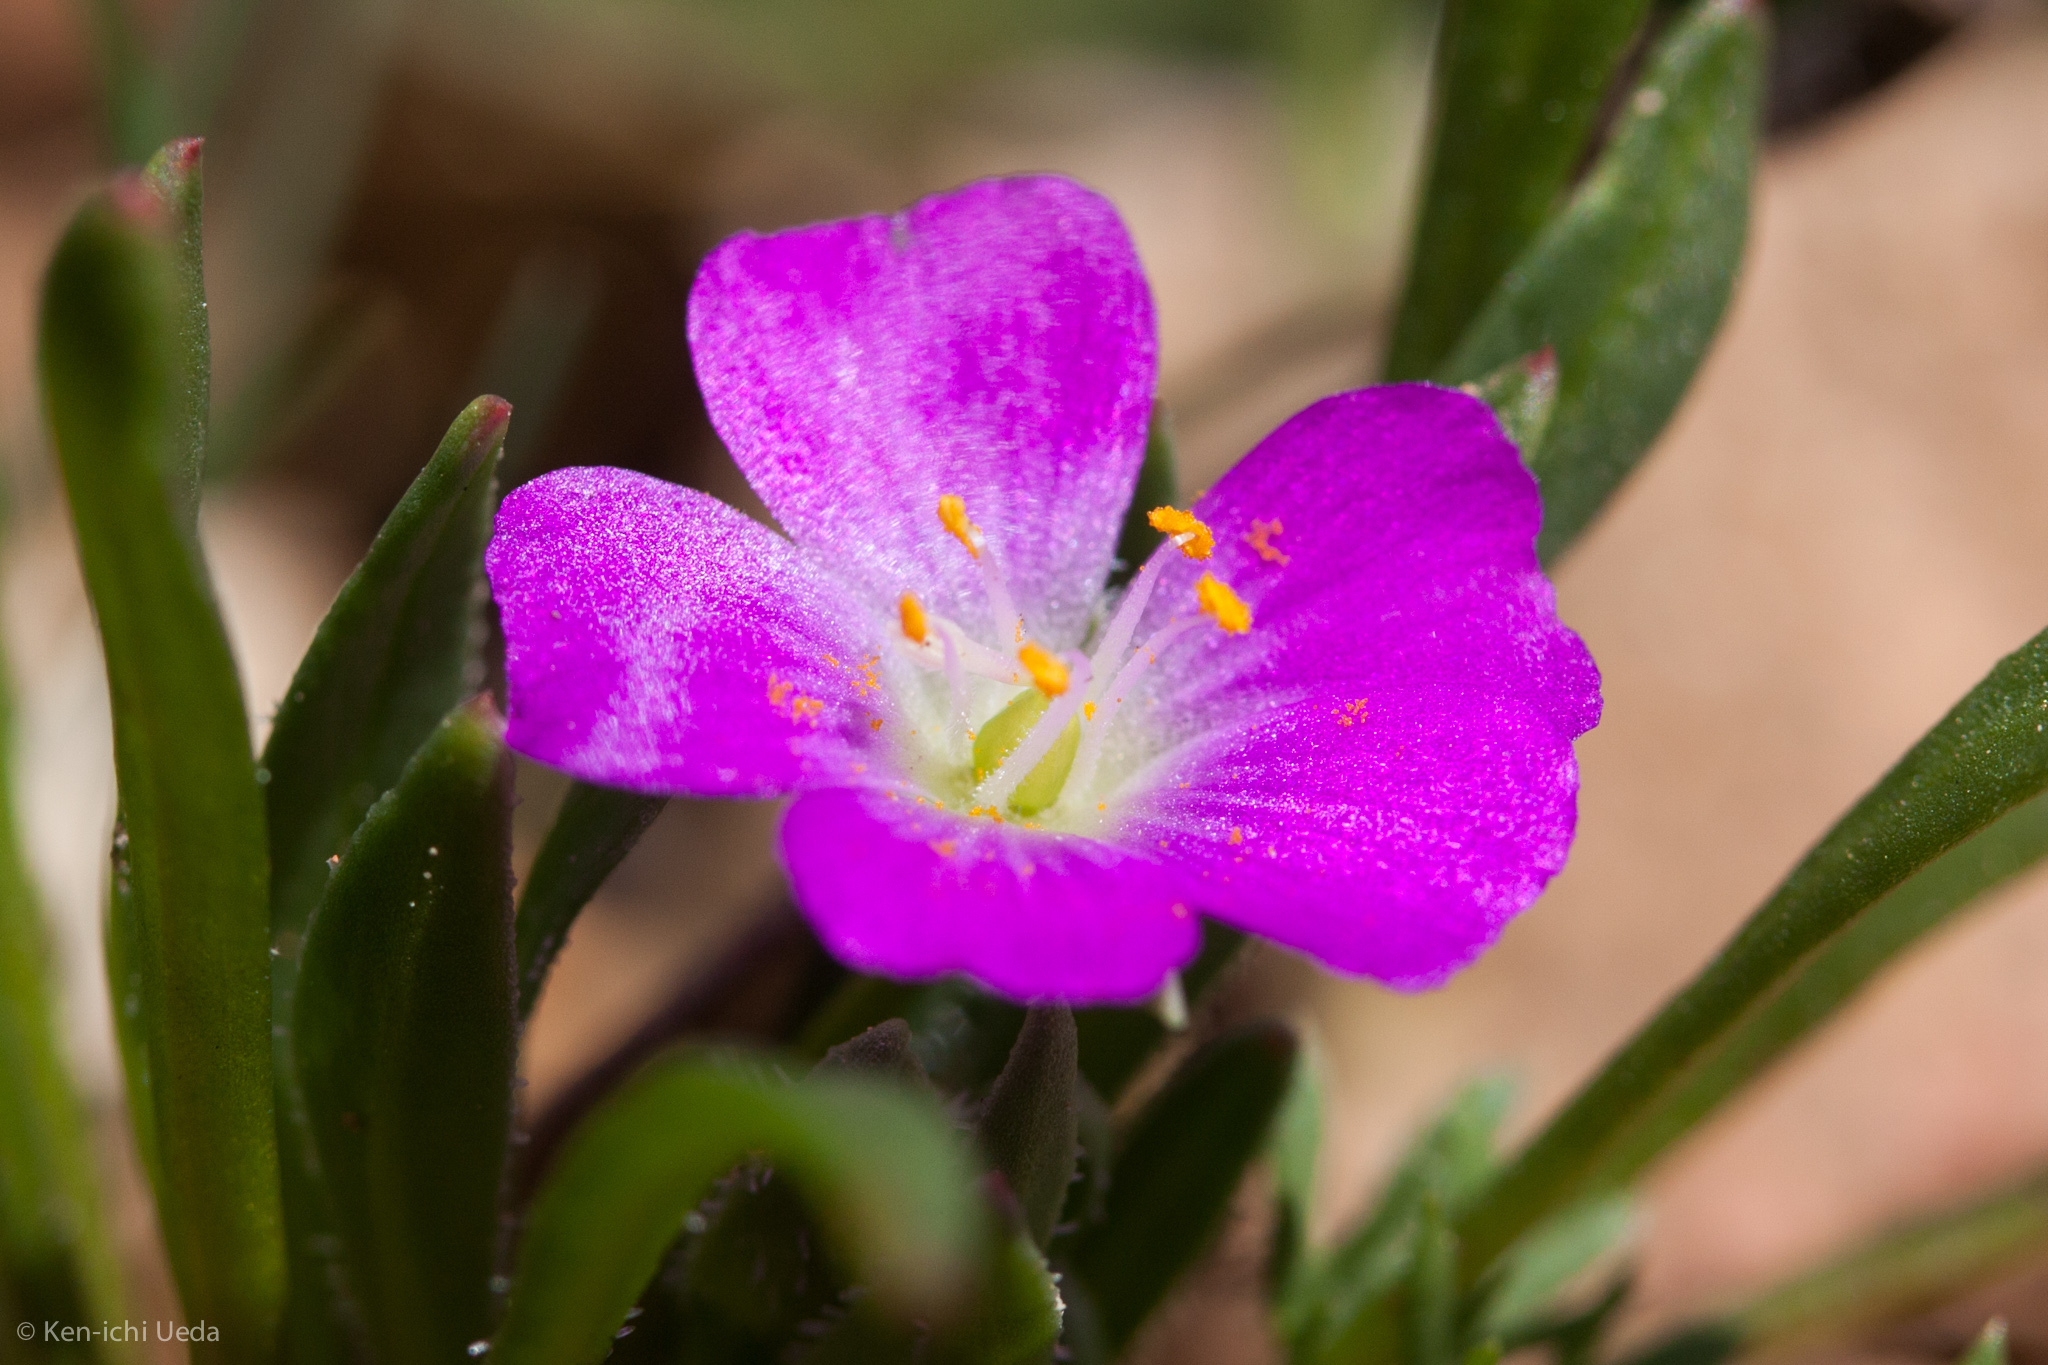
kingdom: Plantae
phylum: Tracheophyta
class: Magnoliopsida
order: Caryophyllales
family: Montiaceae
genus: Calandrinia
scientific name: Calandrinia menziesii
